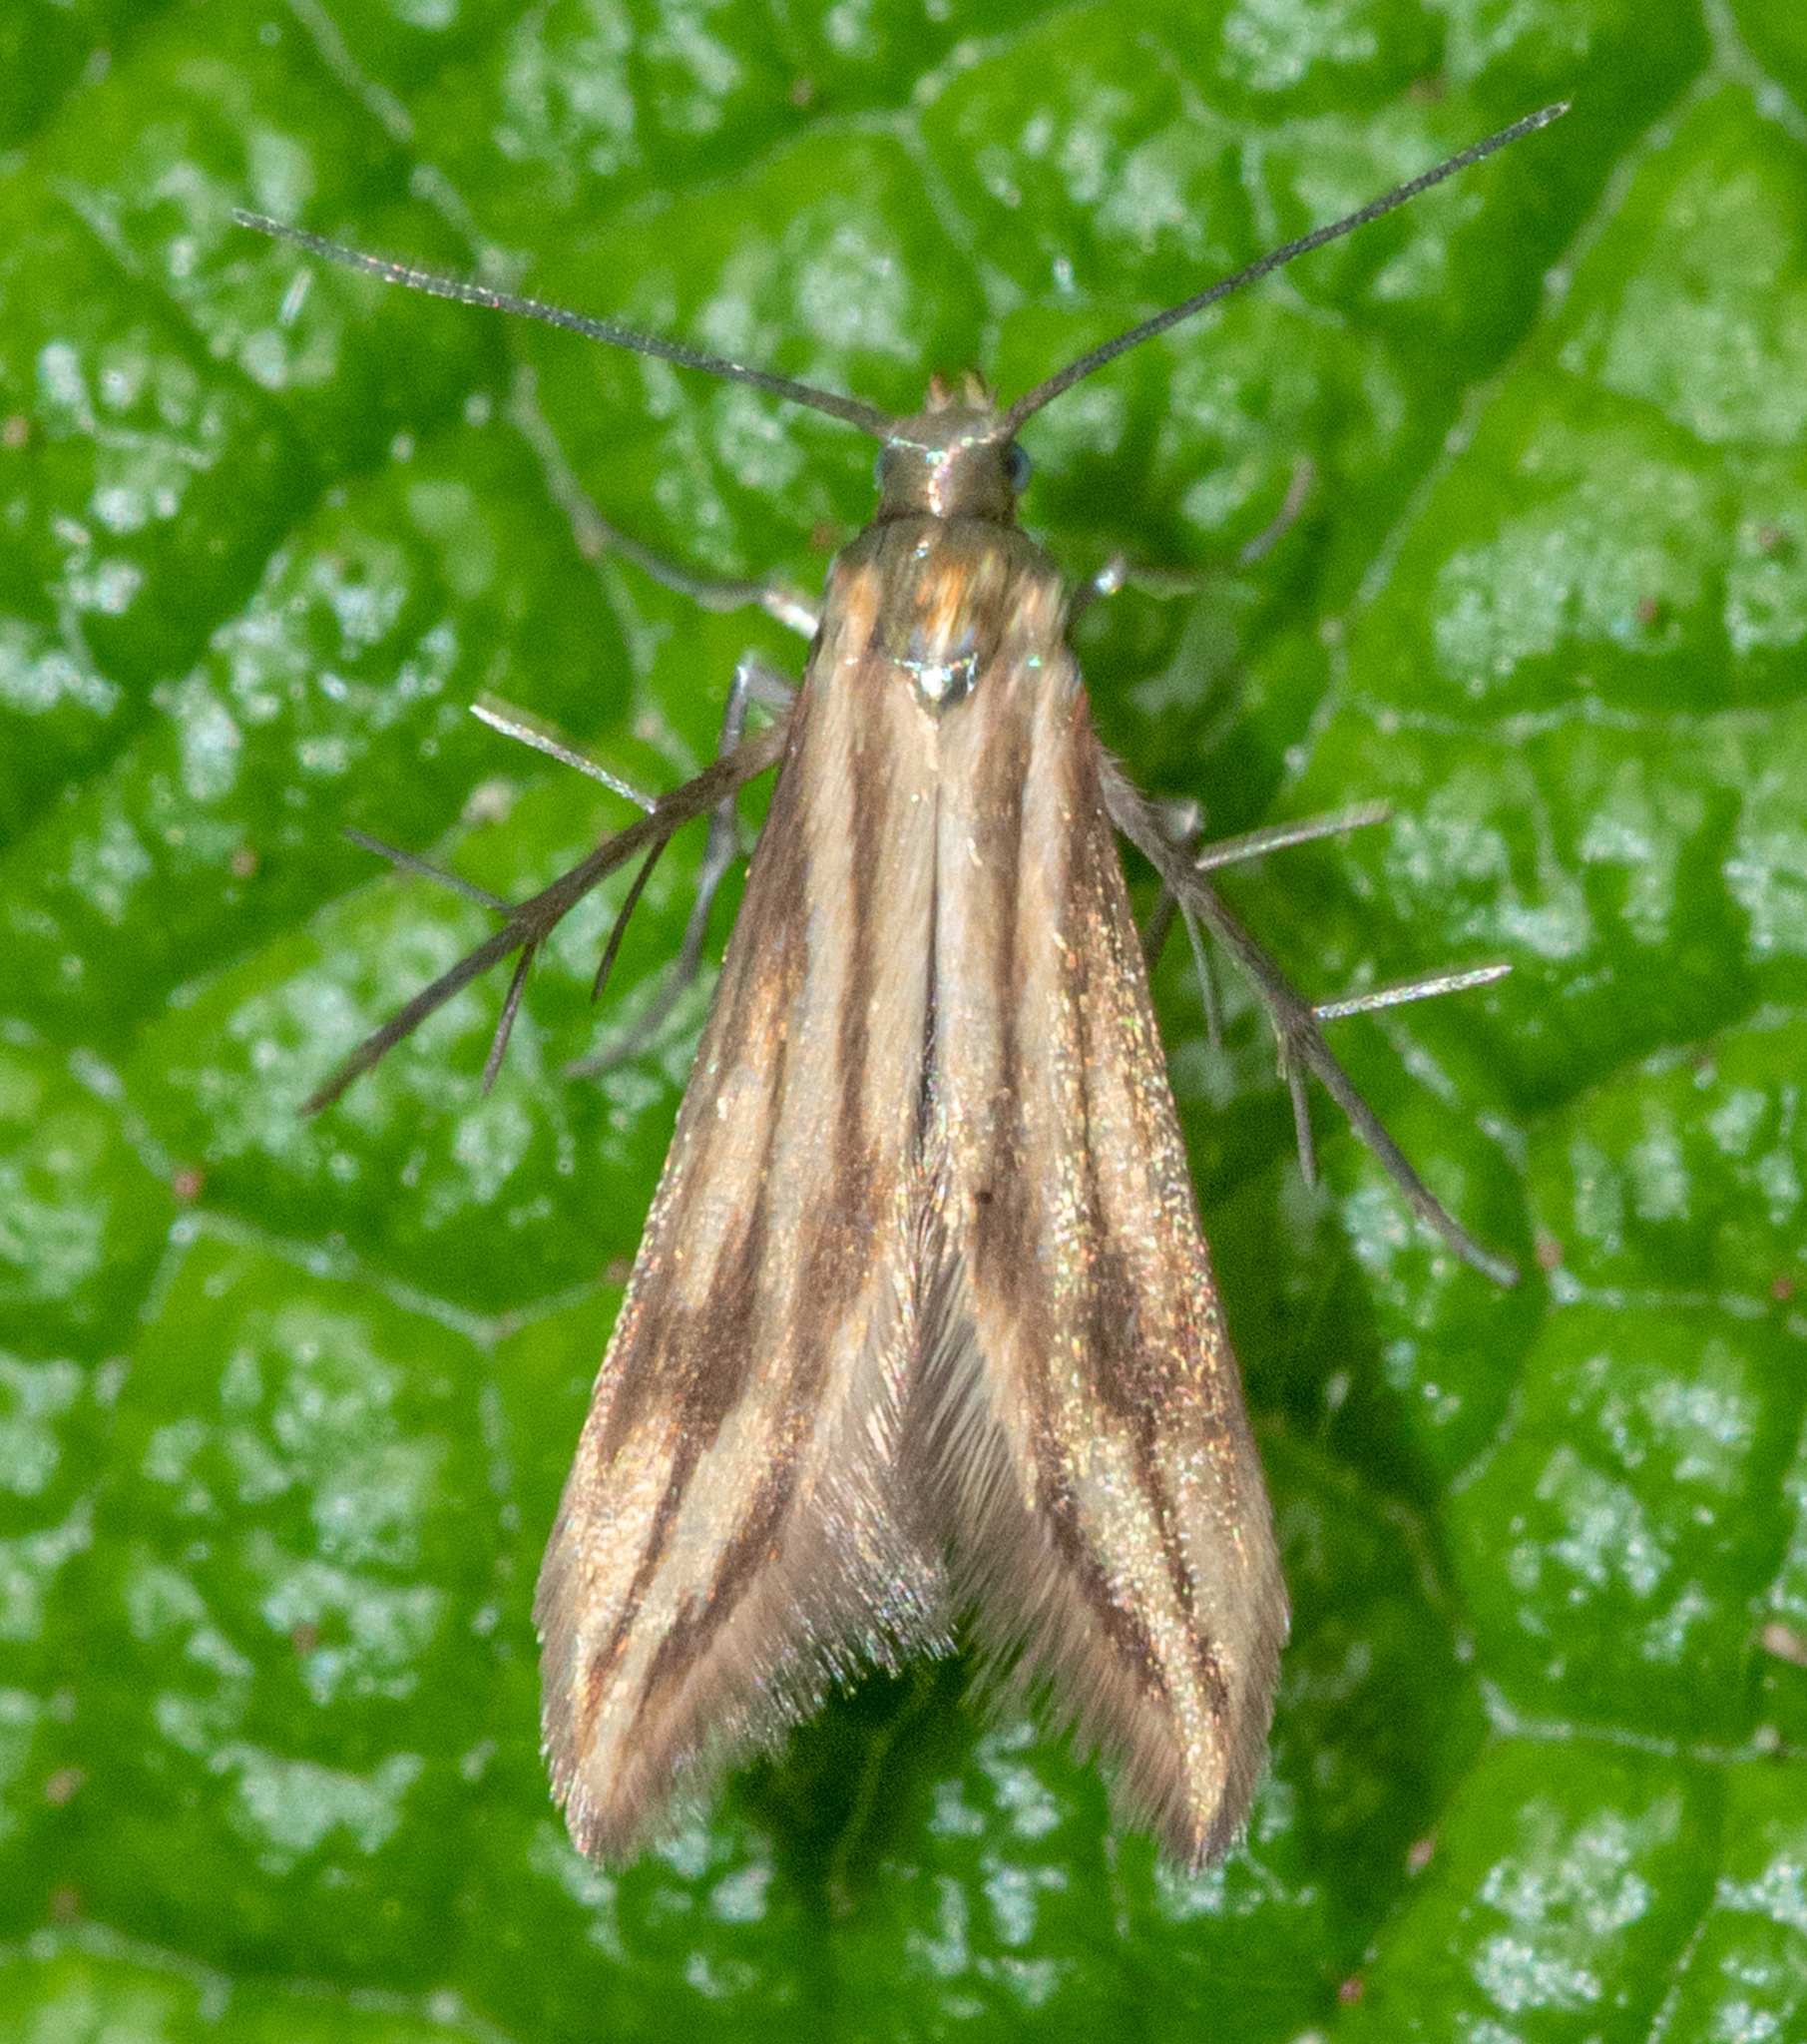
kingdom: Animalia
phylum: Arthropoda
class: Insecta
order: Lepidoptera
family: Schreckensteiniidae
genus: Schreckensteinia
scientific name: Schreckensteinia festaliella
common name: Blackberry skeletonizer
